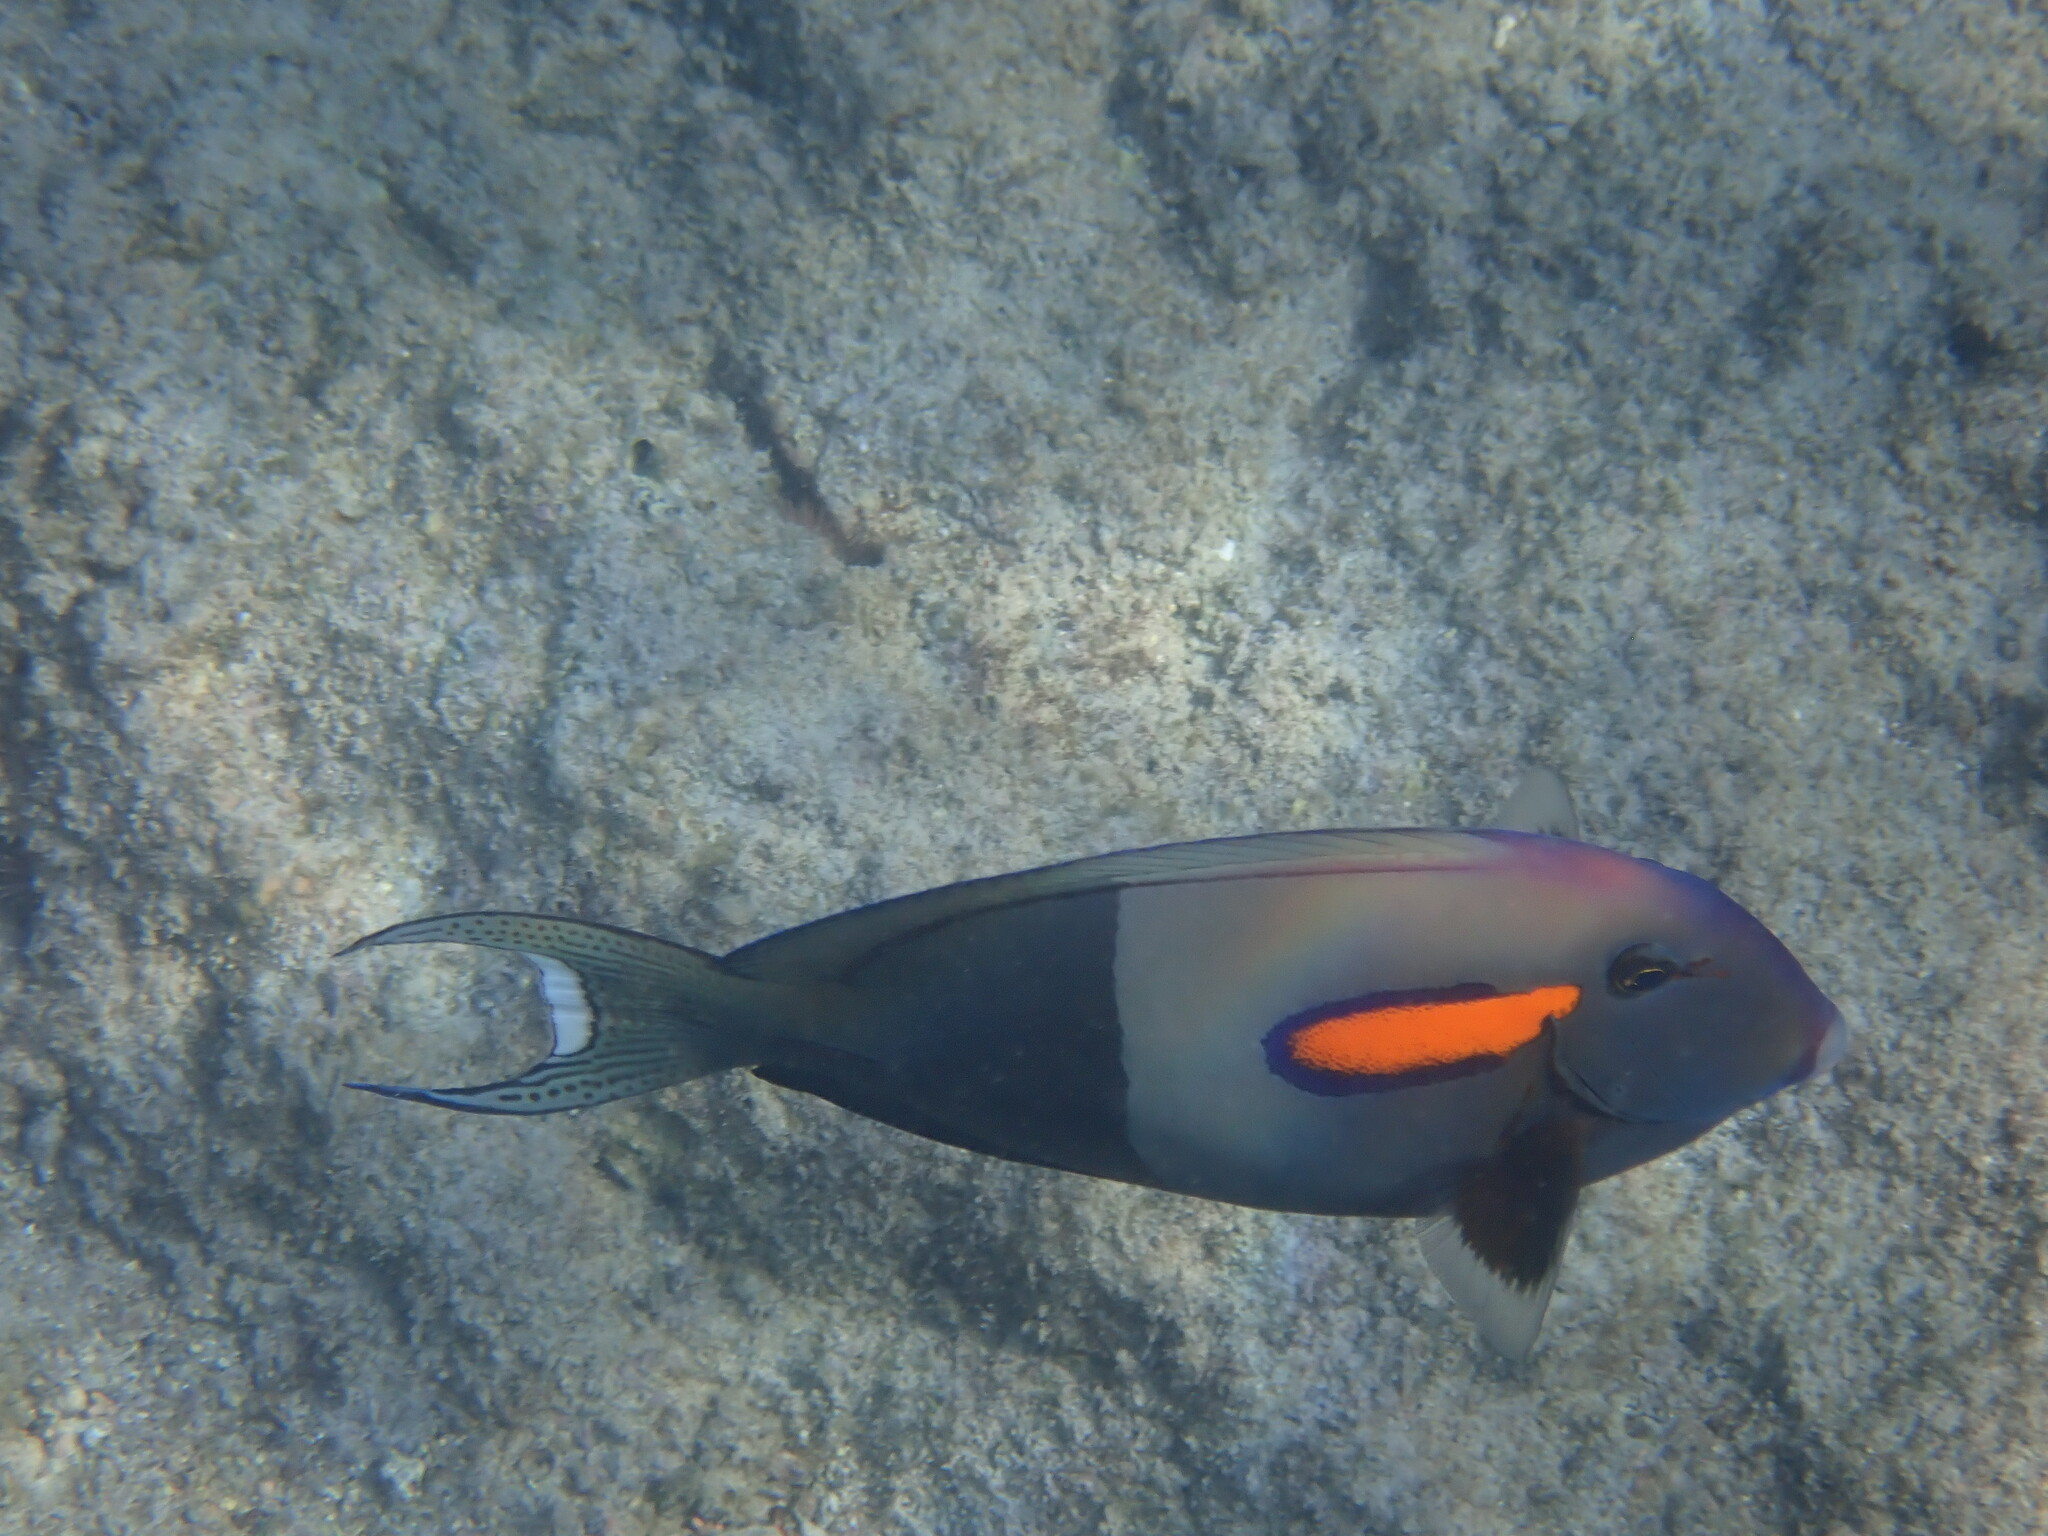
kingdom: Animalia
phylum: Chordata
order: Perciformes
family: Acanthuridae
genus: Acanthurus
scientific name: Acanthurus olivaceus
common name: Gendarme fish
